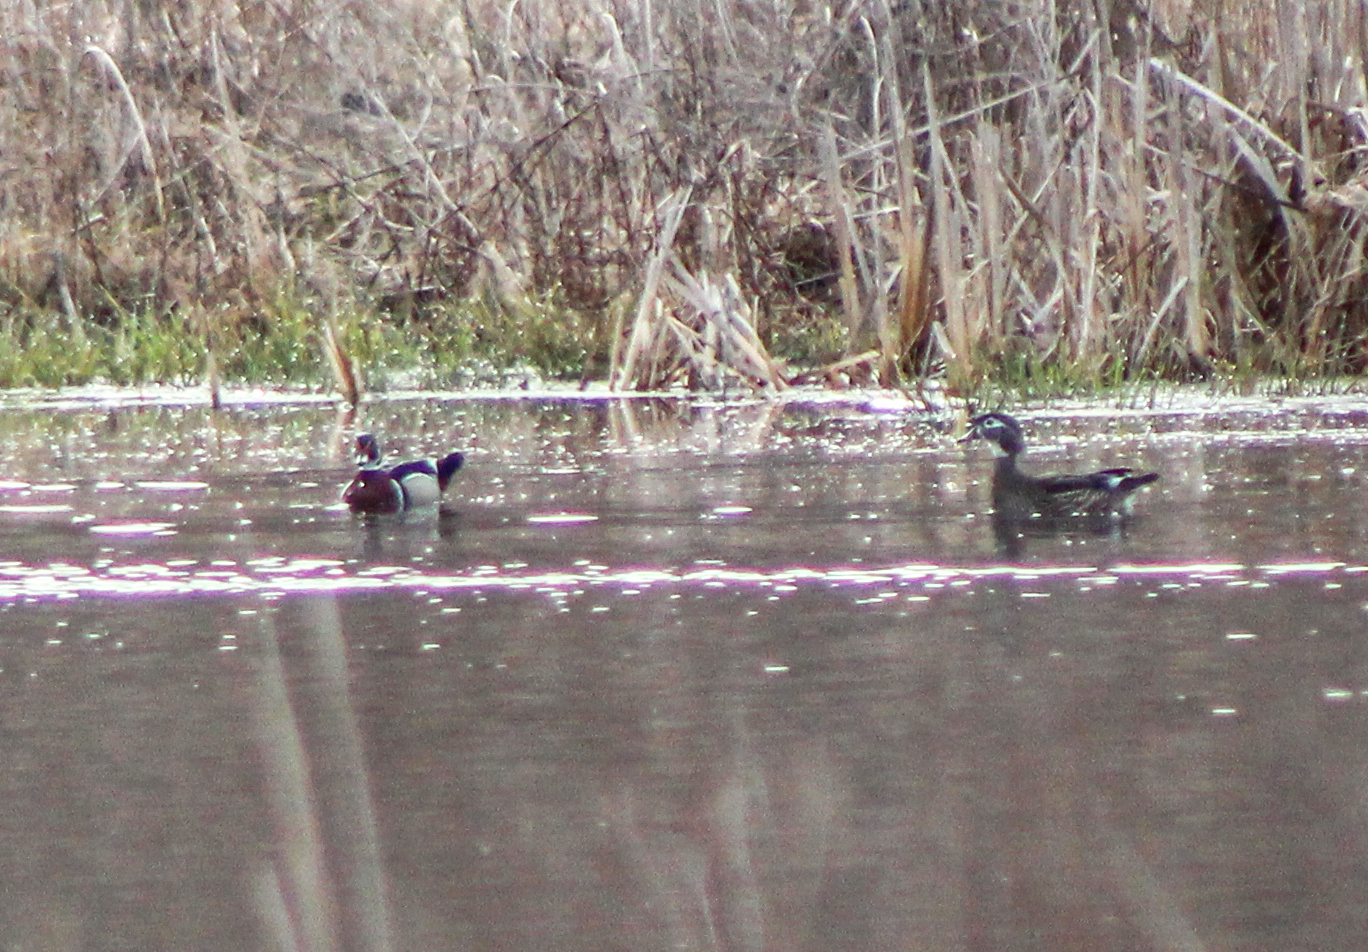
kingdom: Animalia
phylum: Chordata
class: Aves
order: Anseriformes
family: Anatidae
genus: Aix
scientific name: Aix sponsa
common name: Wood duck
